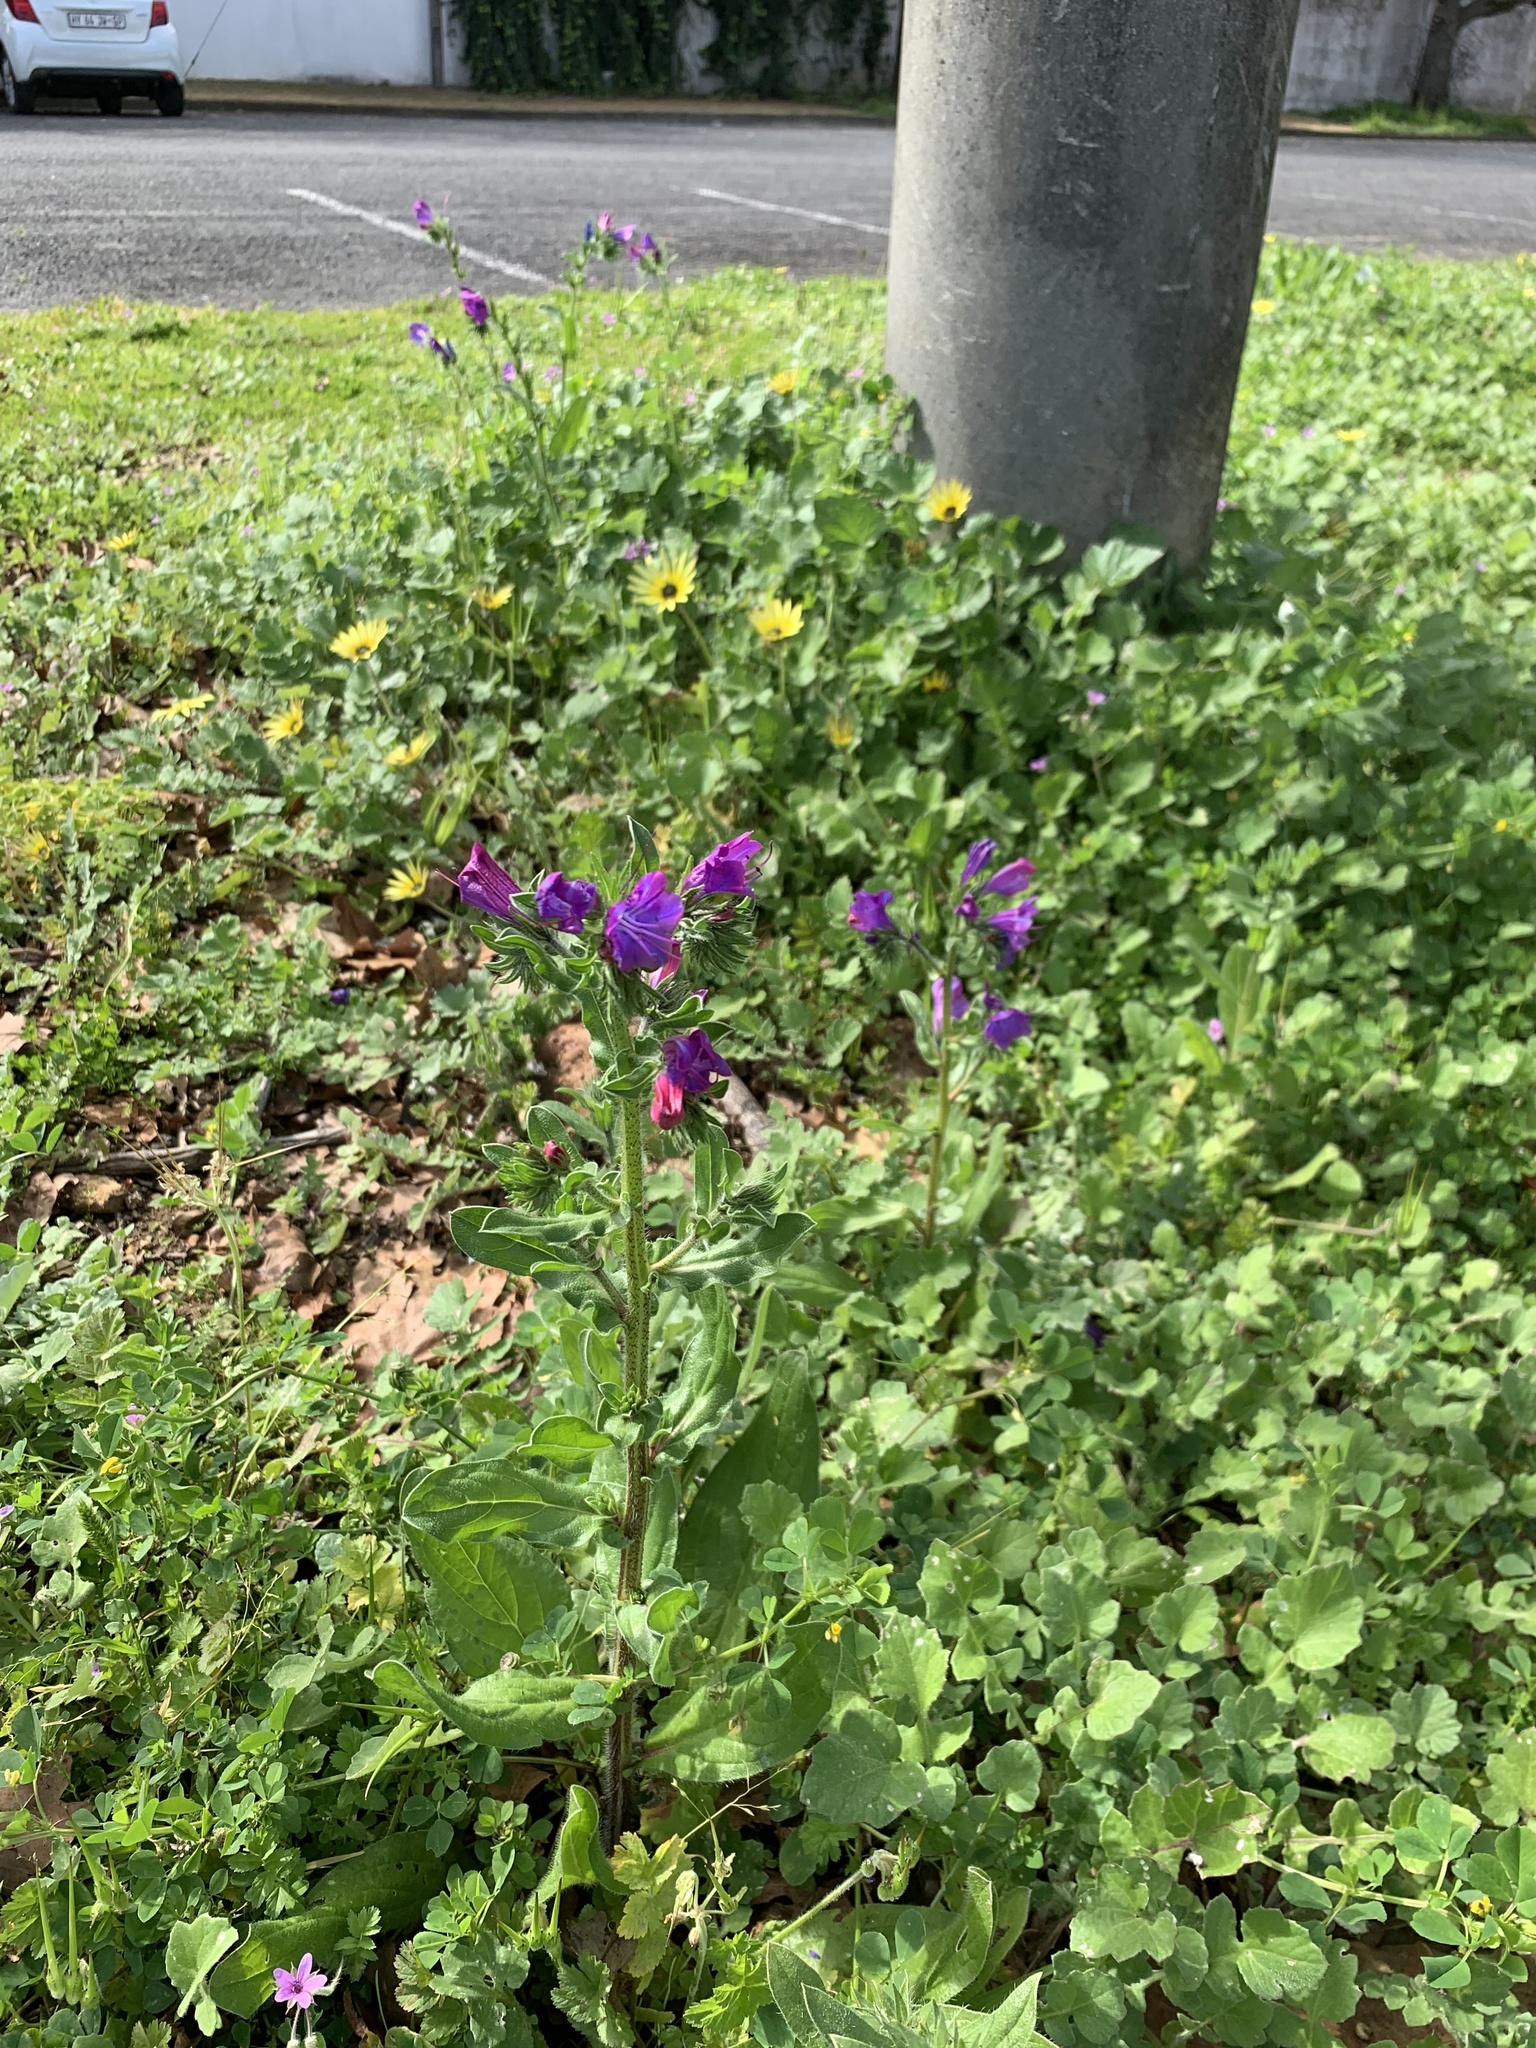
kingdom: Plantae
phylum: Tracheophyta
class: Magnoliopsida
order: Boraginales
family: Boraginaceae
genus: Echium
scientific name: Echium plantagineum
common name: Purple viper's-bugloss
